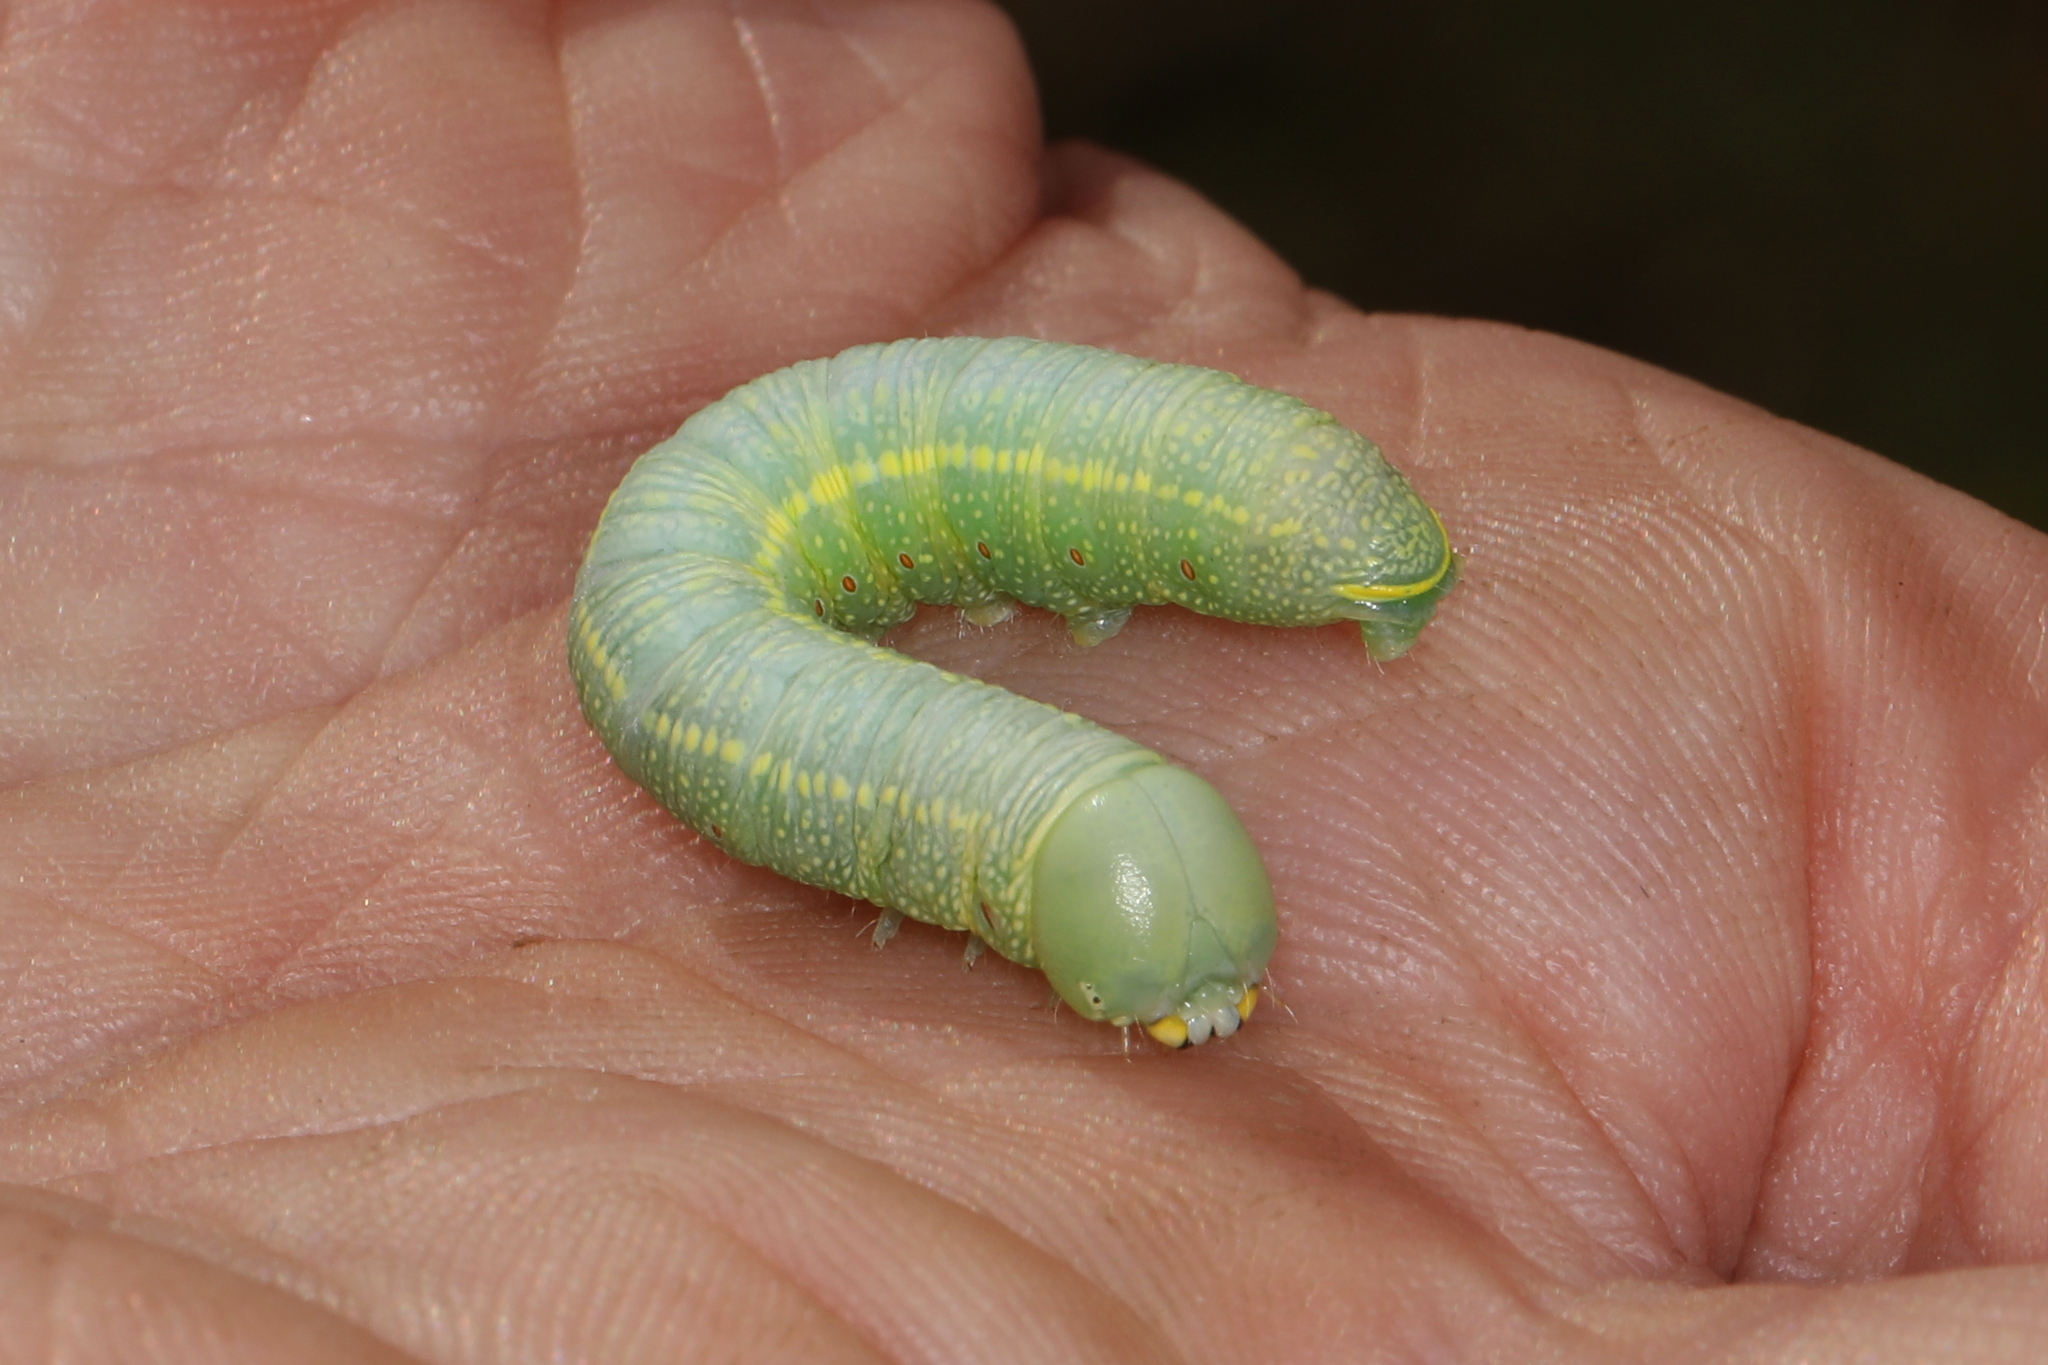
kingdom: Animalia
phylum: Arthropoda
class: Insecta
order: Lepidoptera
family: Notodontidae
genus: Nadata
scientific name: Nadata gibbosa
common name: White-dotted prominent
